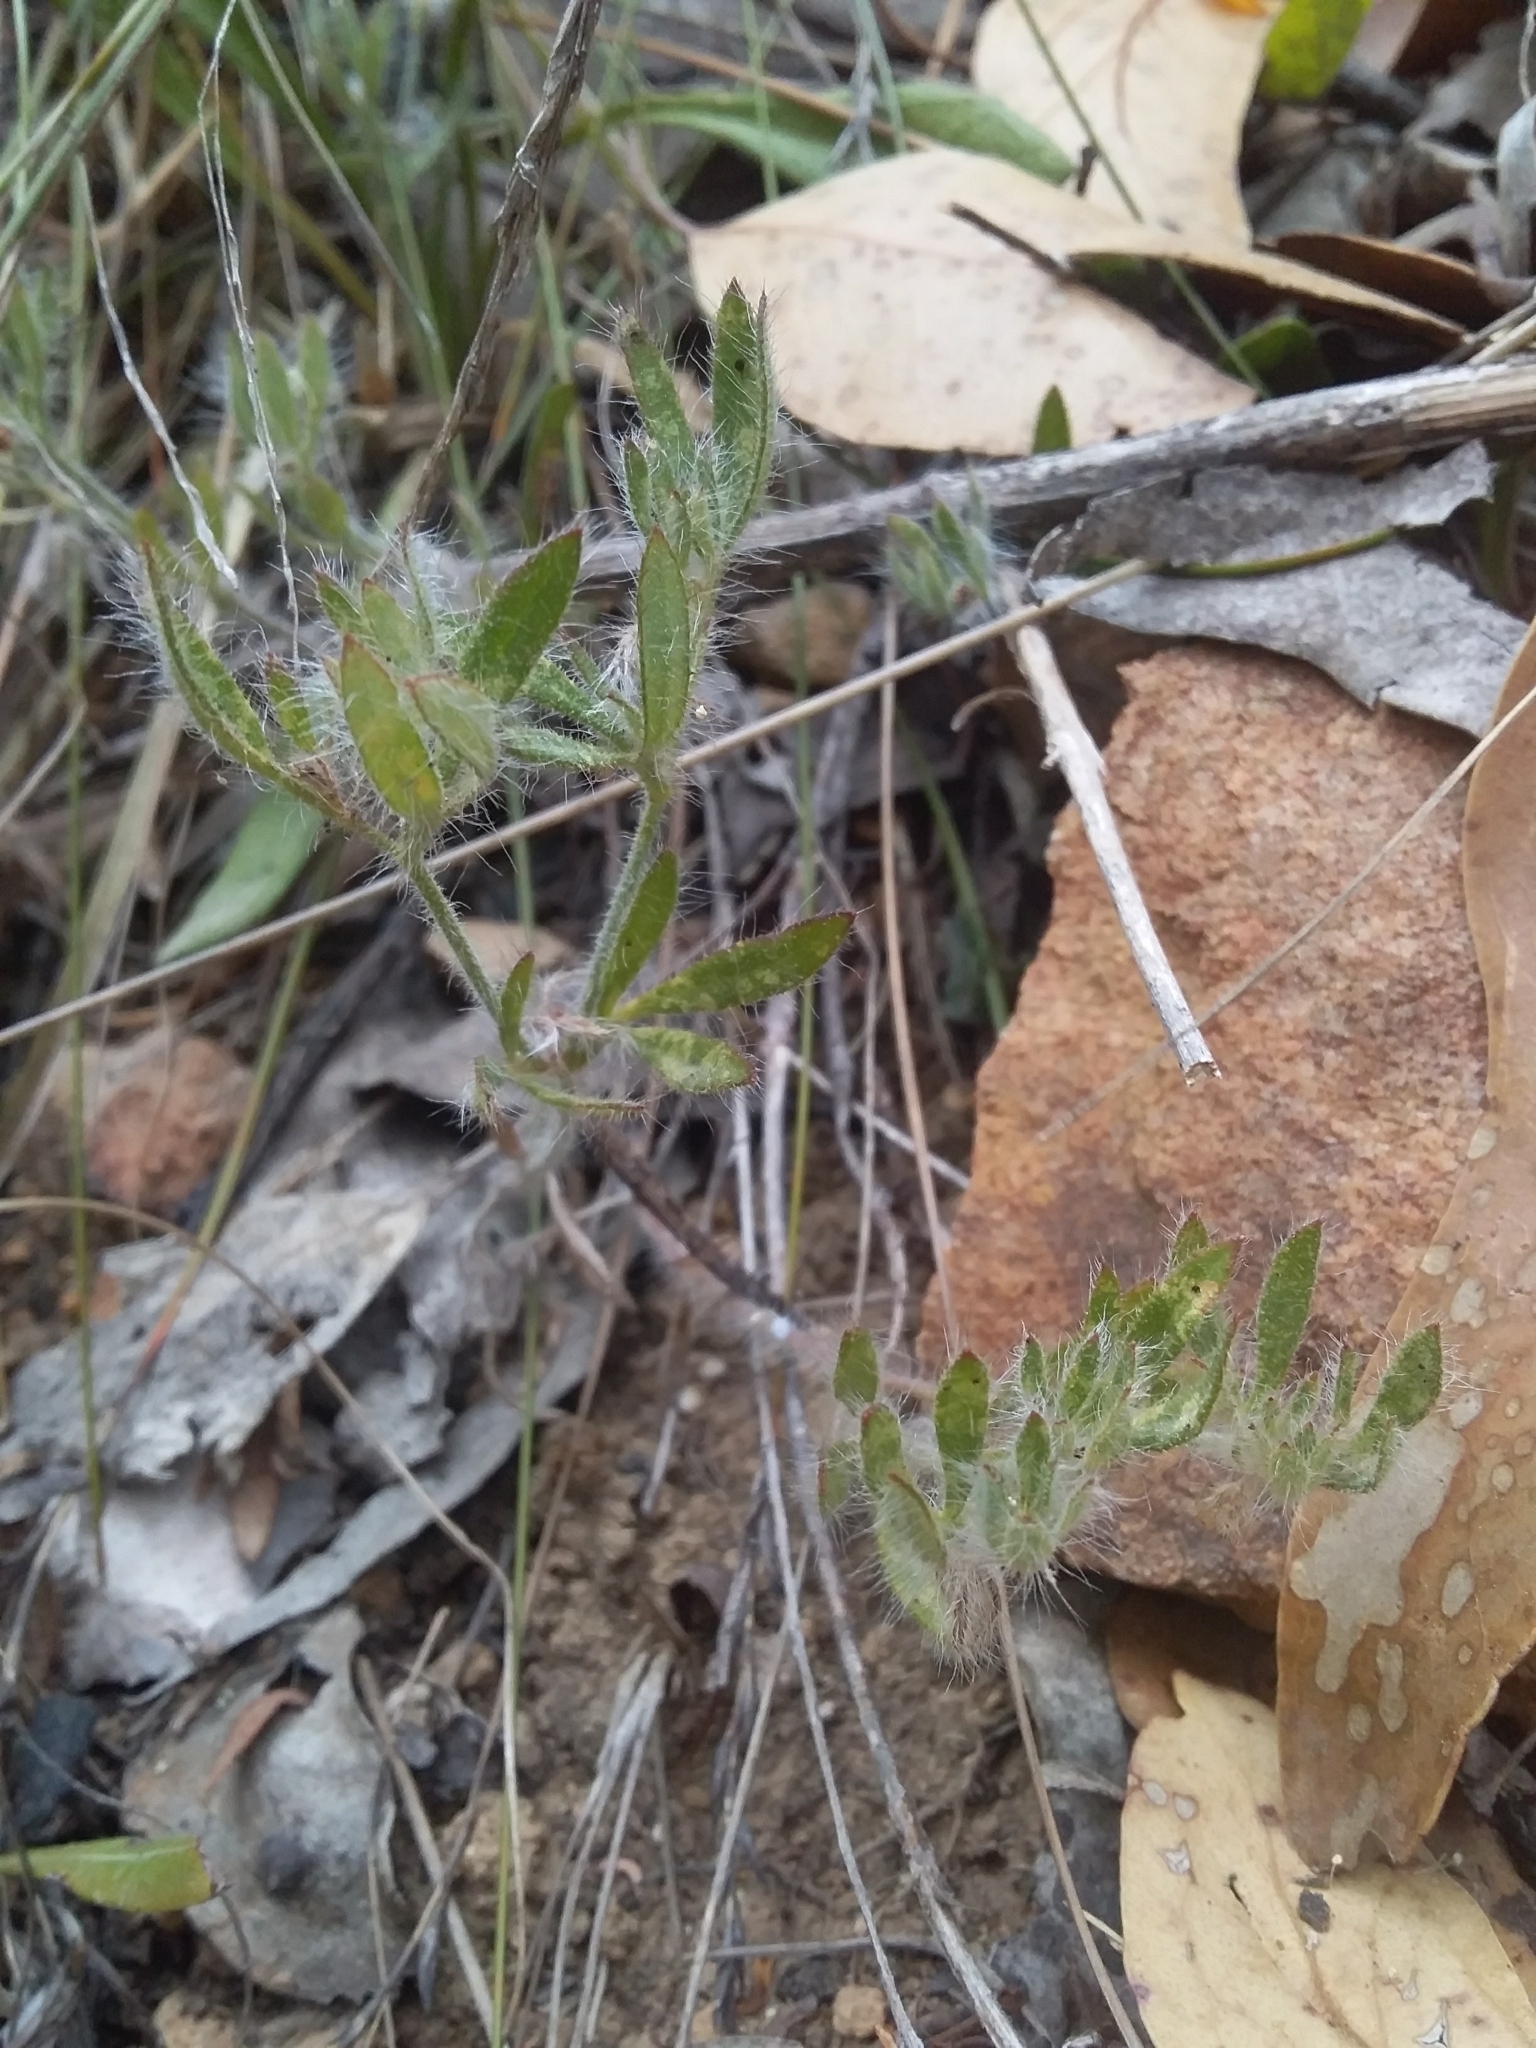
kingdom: Plantae
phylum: Tracheophyta
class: Magnoliopsida
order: Apiales
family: Apiaceae
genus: Xanthosia
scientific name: Xanthosia huegelii
